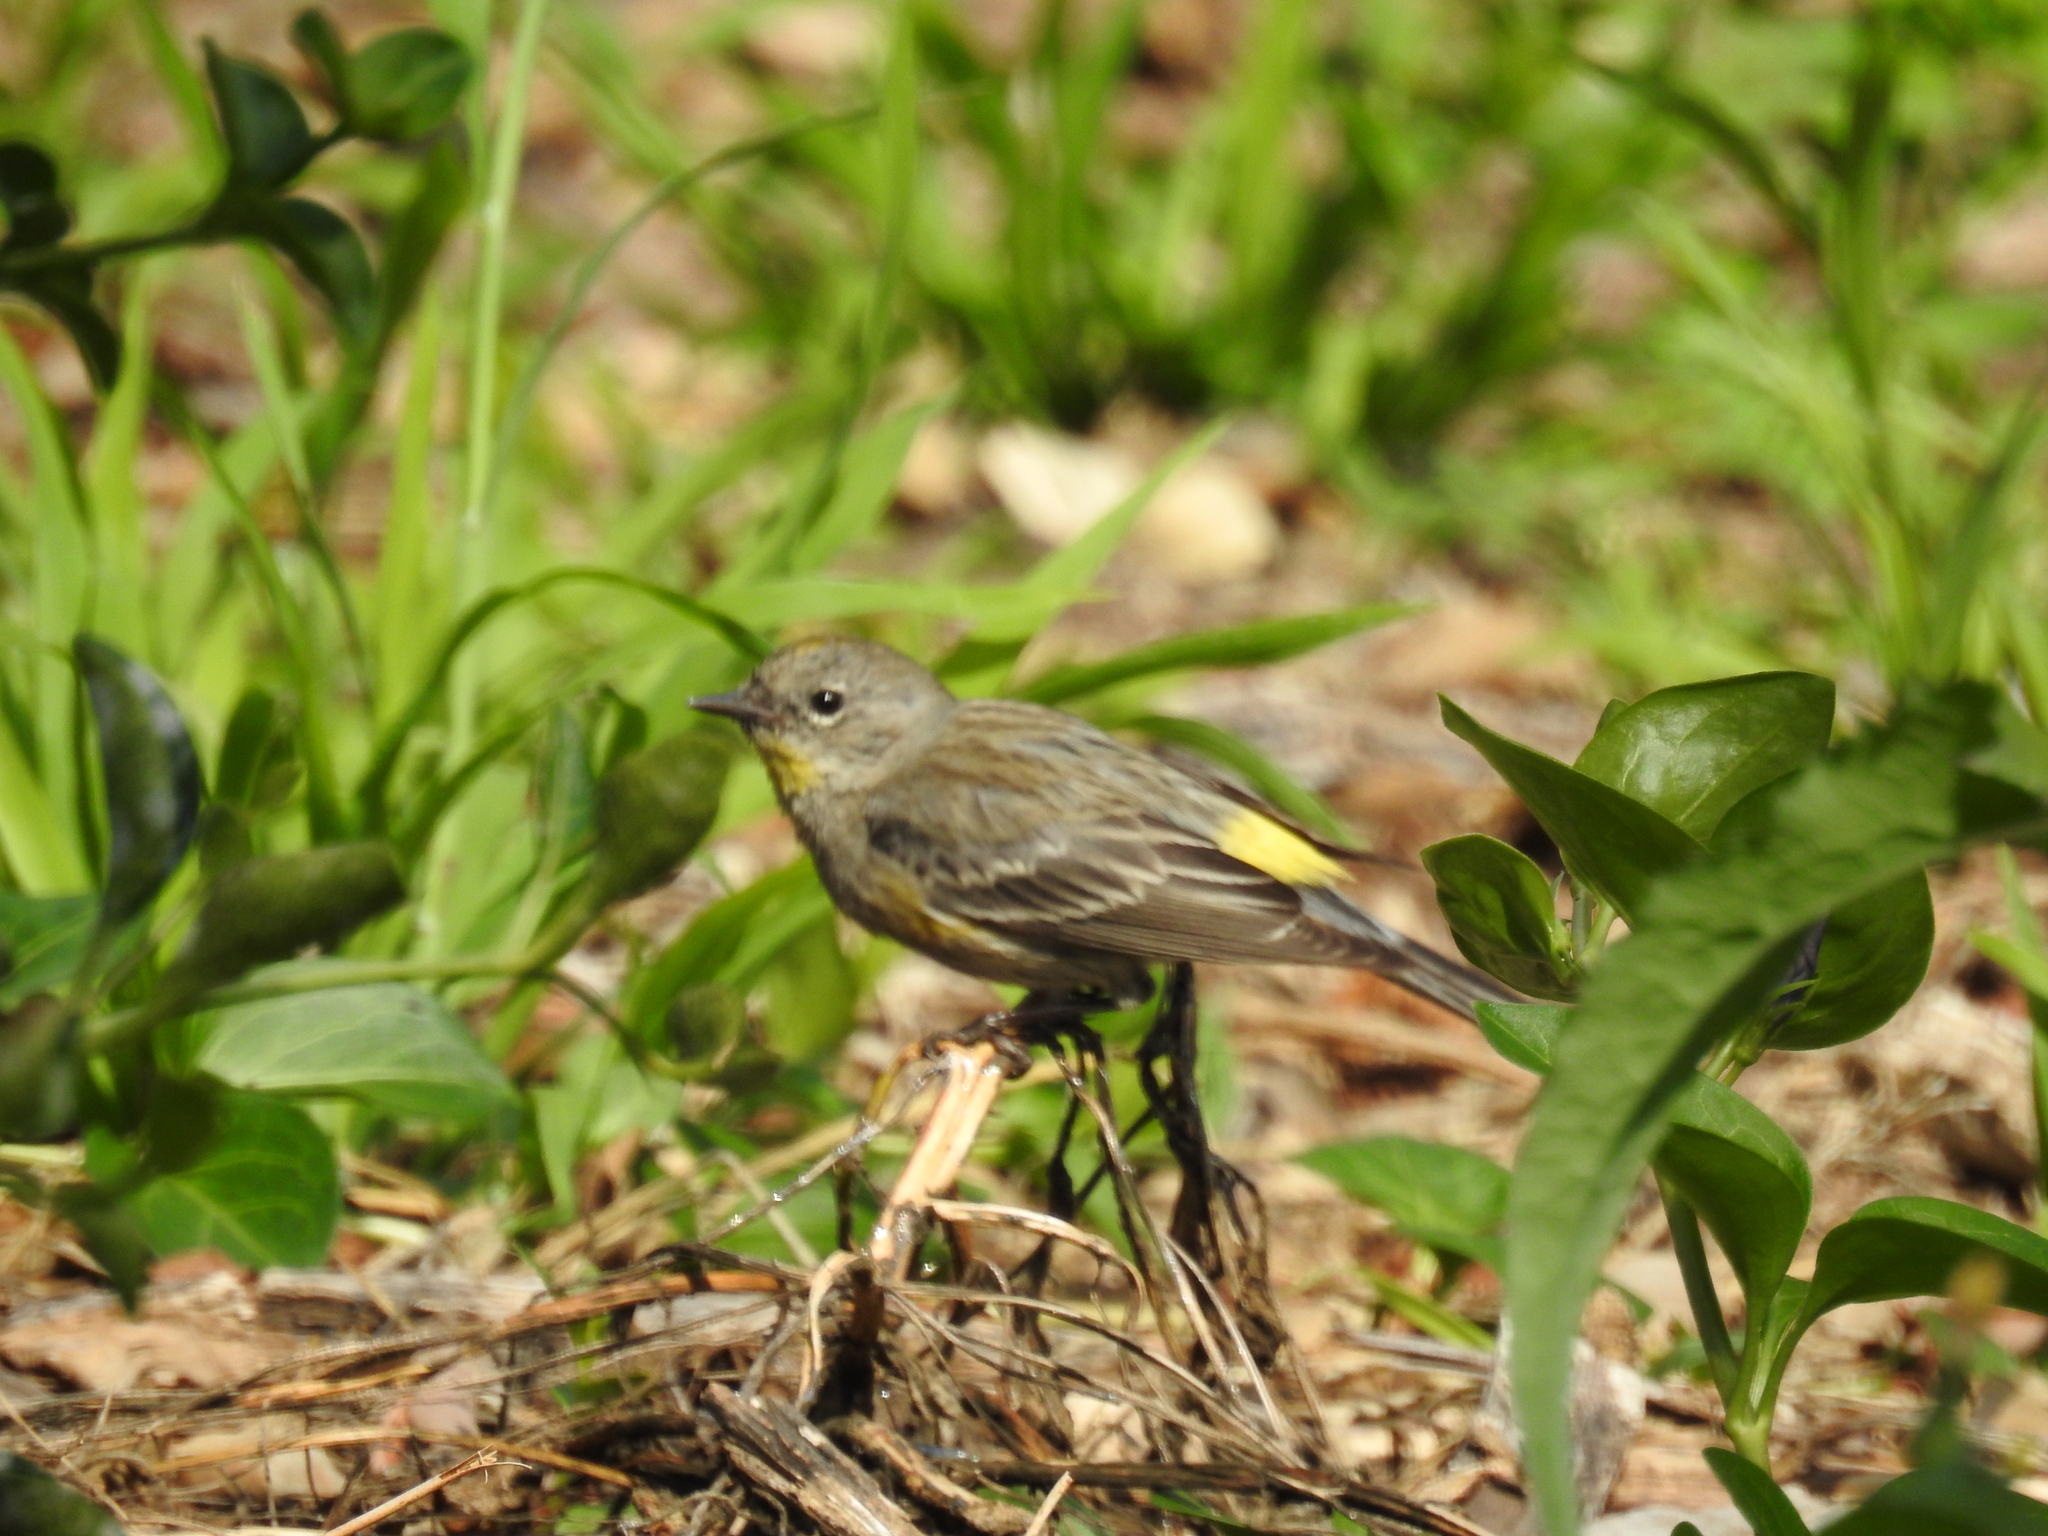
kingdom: Animalia
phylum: Chordata
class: Aves
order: Passeriformes
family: Parulidae
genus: Setophaga
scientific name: Setophaga coronata
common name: Myrtle warbler
